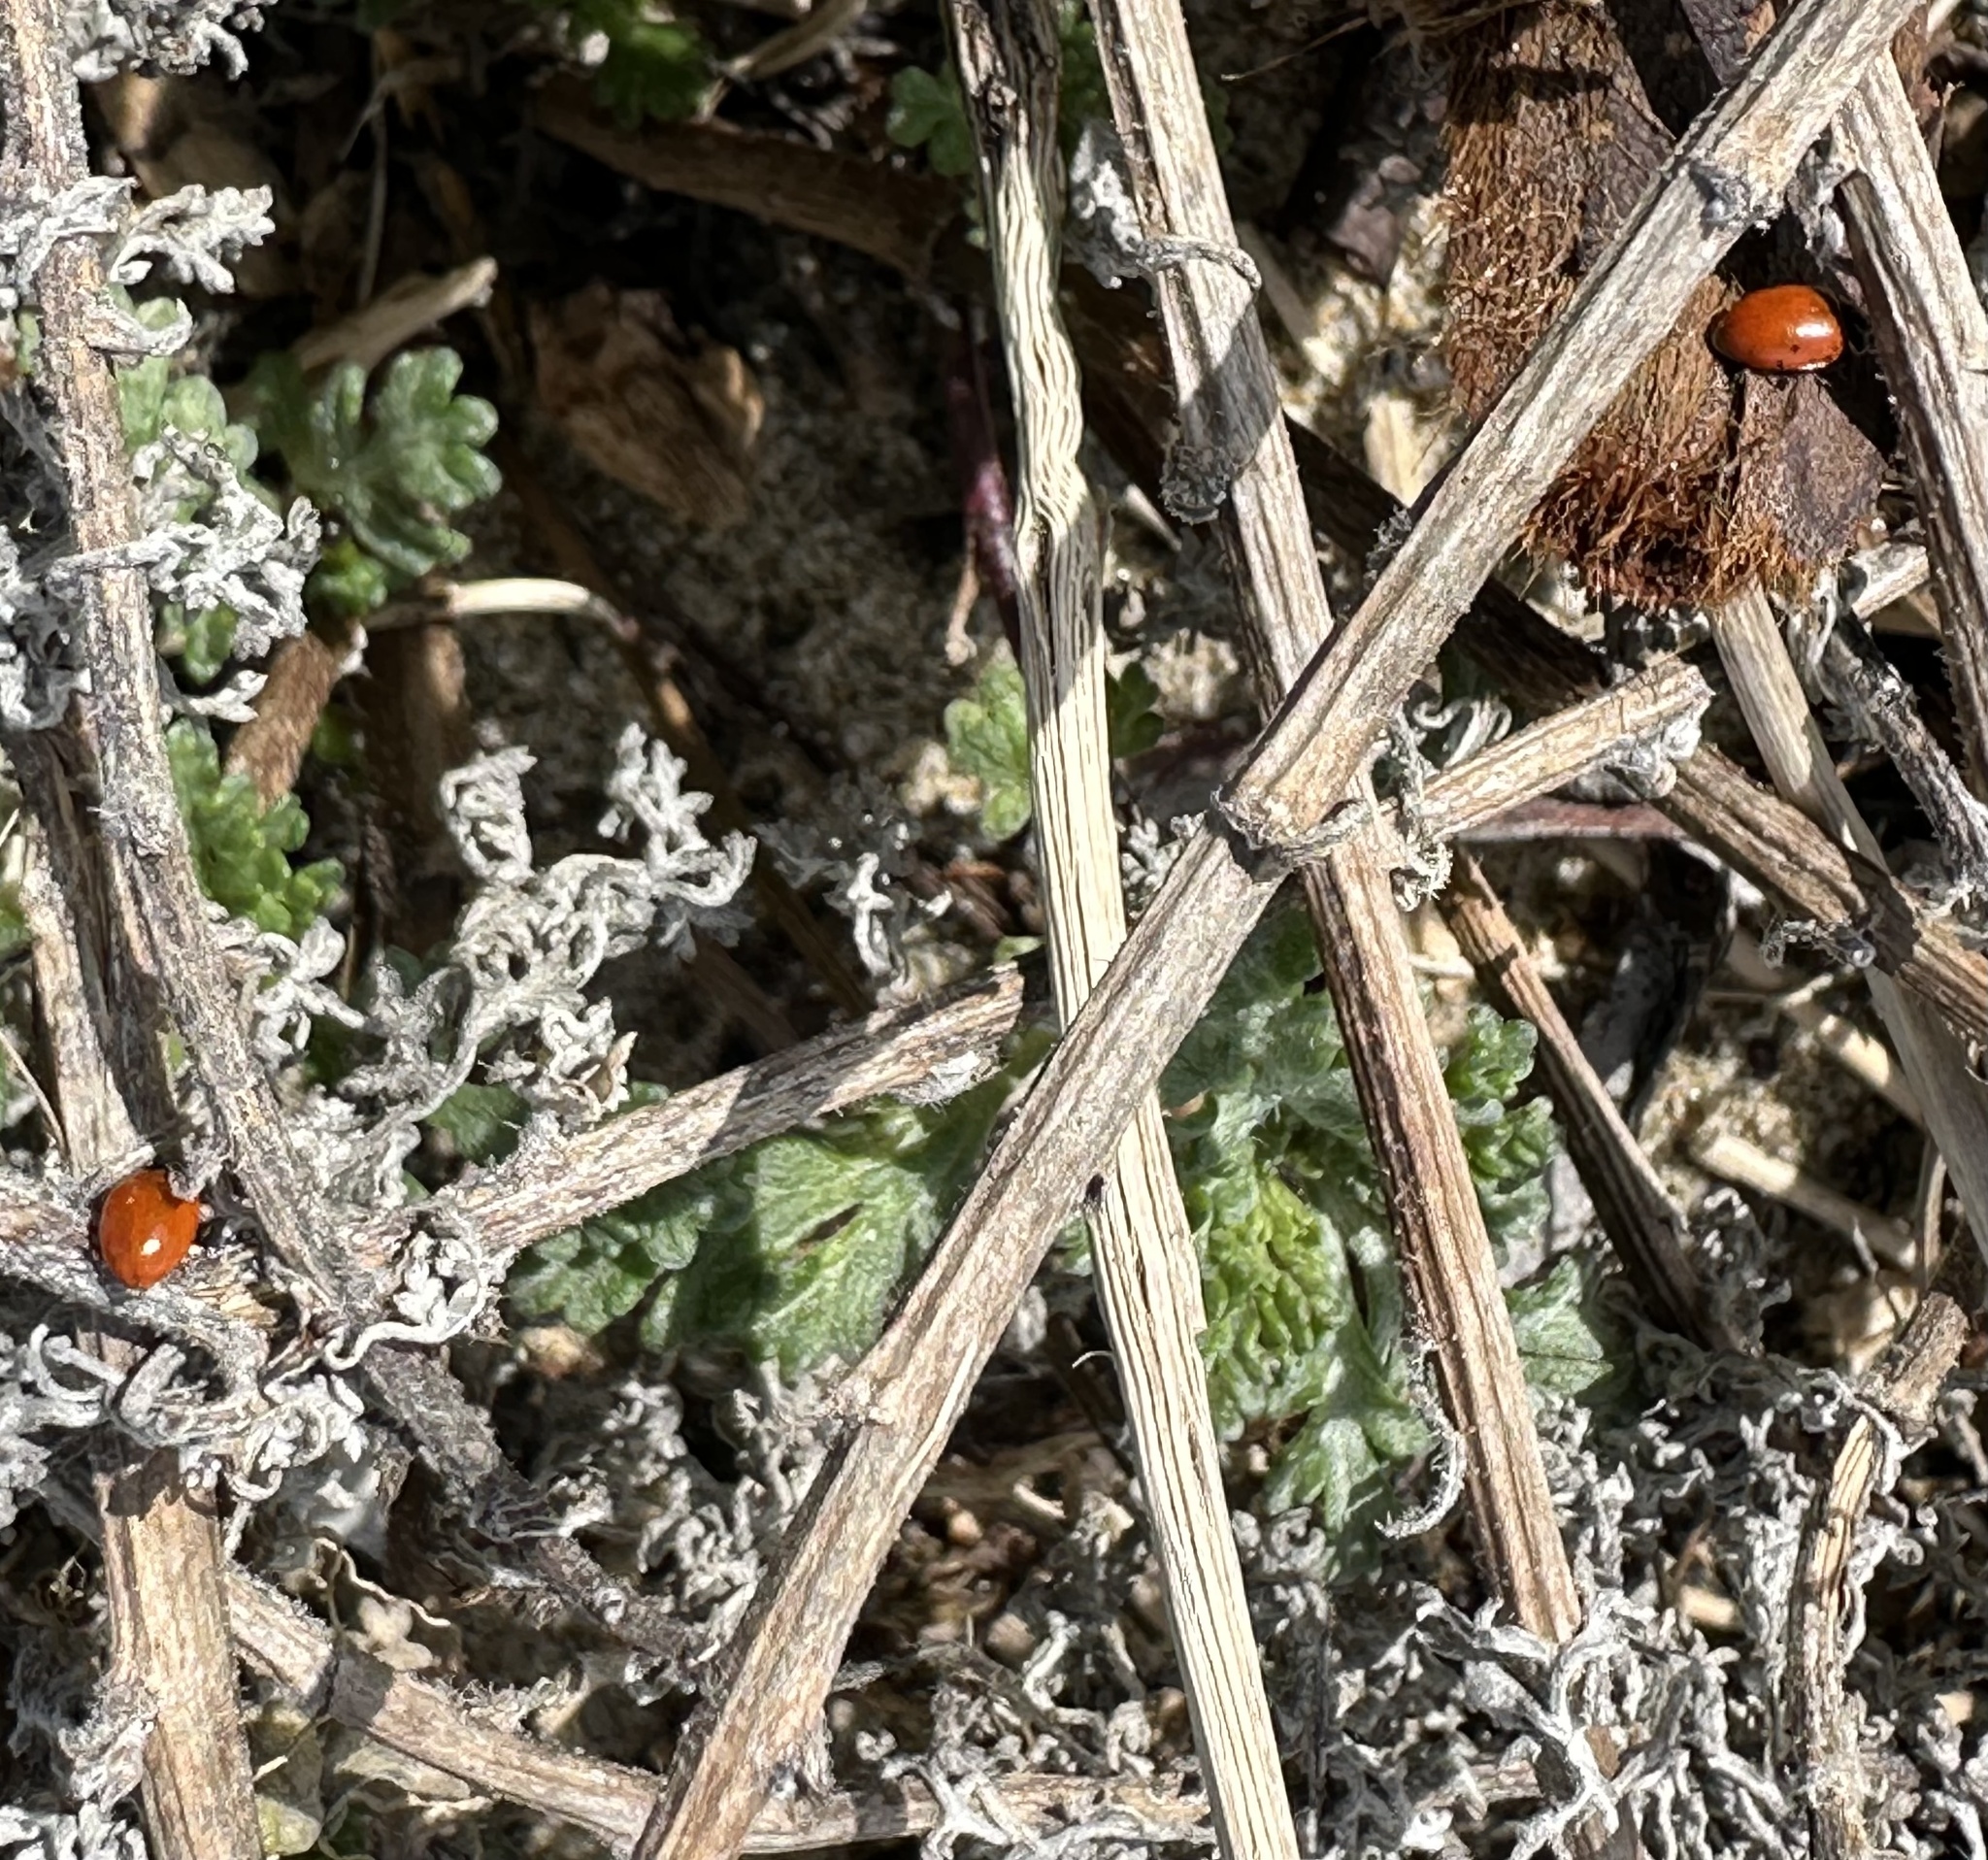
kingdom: Animalia
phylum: Arthropoda
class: Insecta
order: Coleoptera
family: Coccinellidae
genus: Hippodamia
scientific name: Hippodamia convergens
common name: Convergent lady beetle
